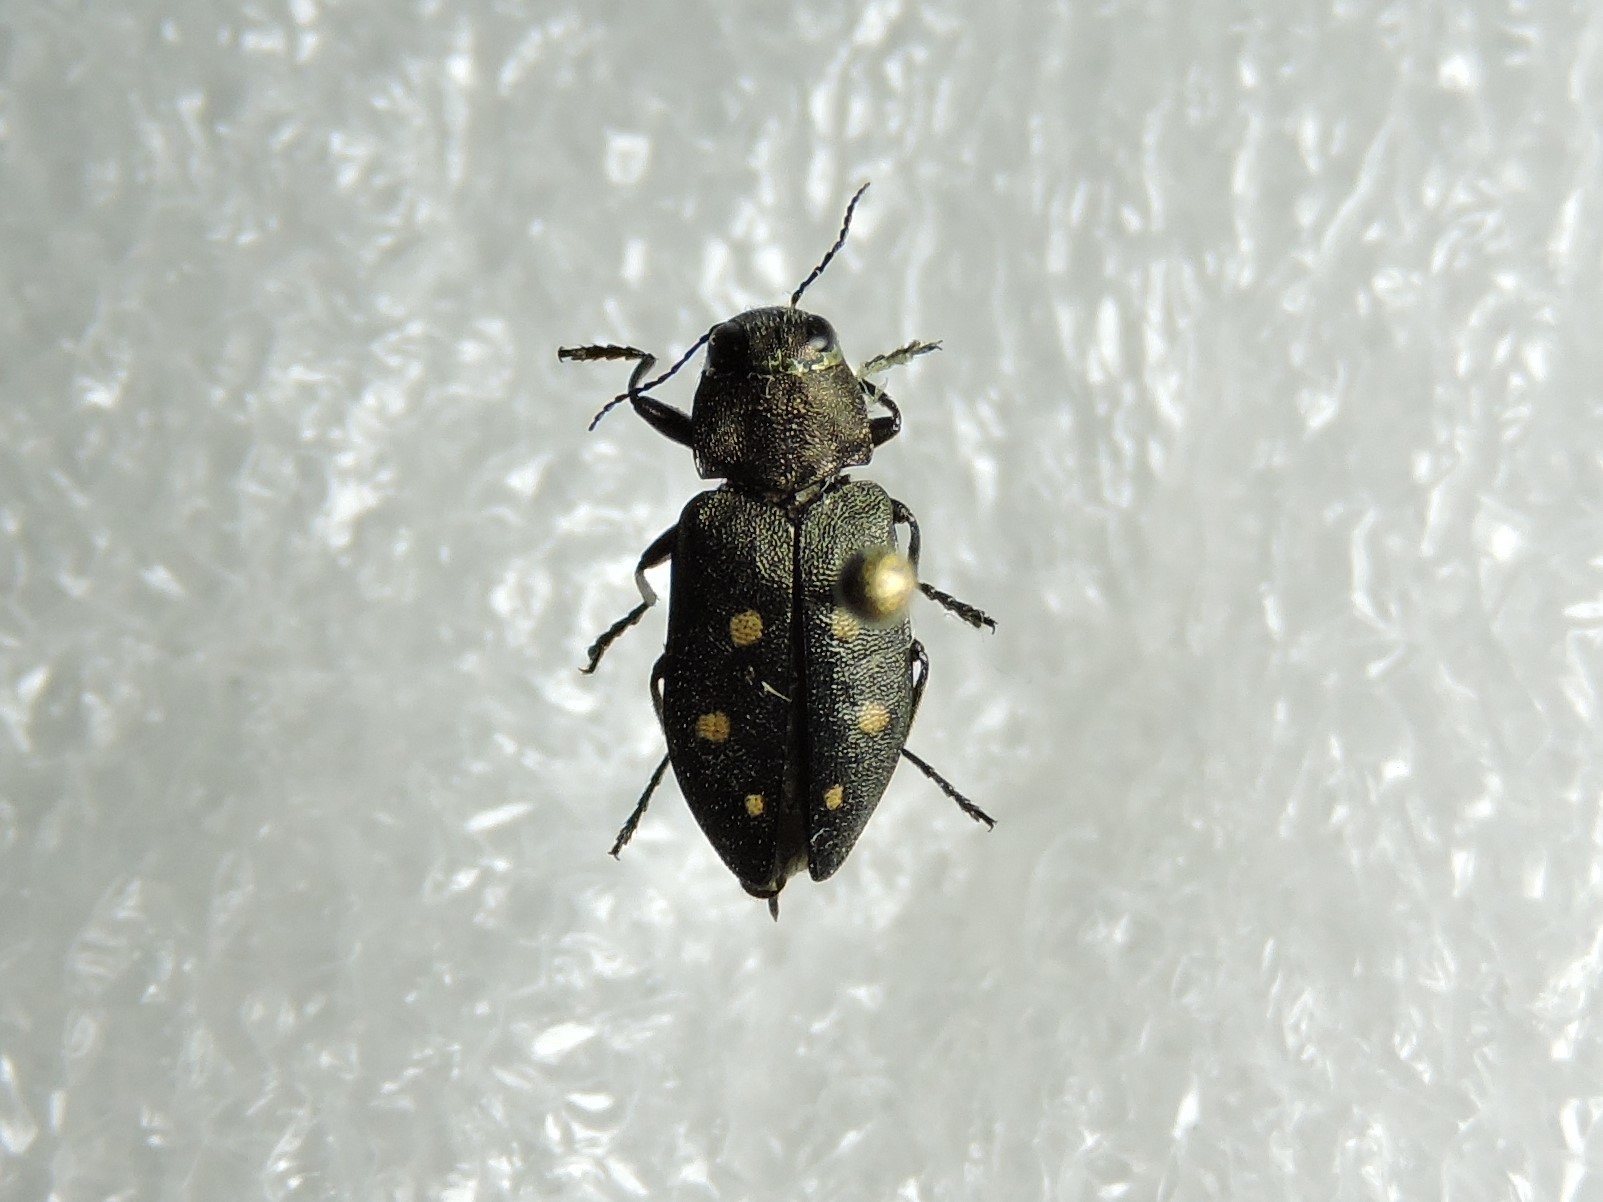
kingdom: Animalia
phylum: Arthropoda
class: Insecta
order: Coleoptera
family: Buprestidae
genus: Phaenops
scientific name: Phaenops guttulata
